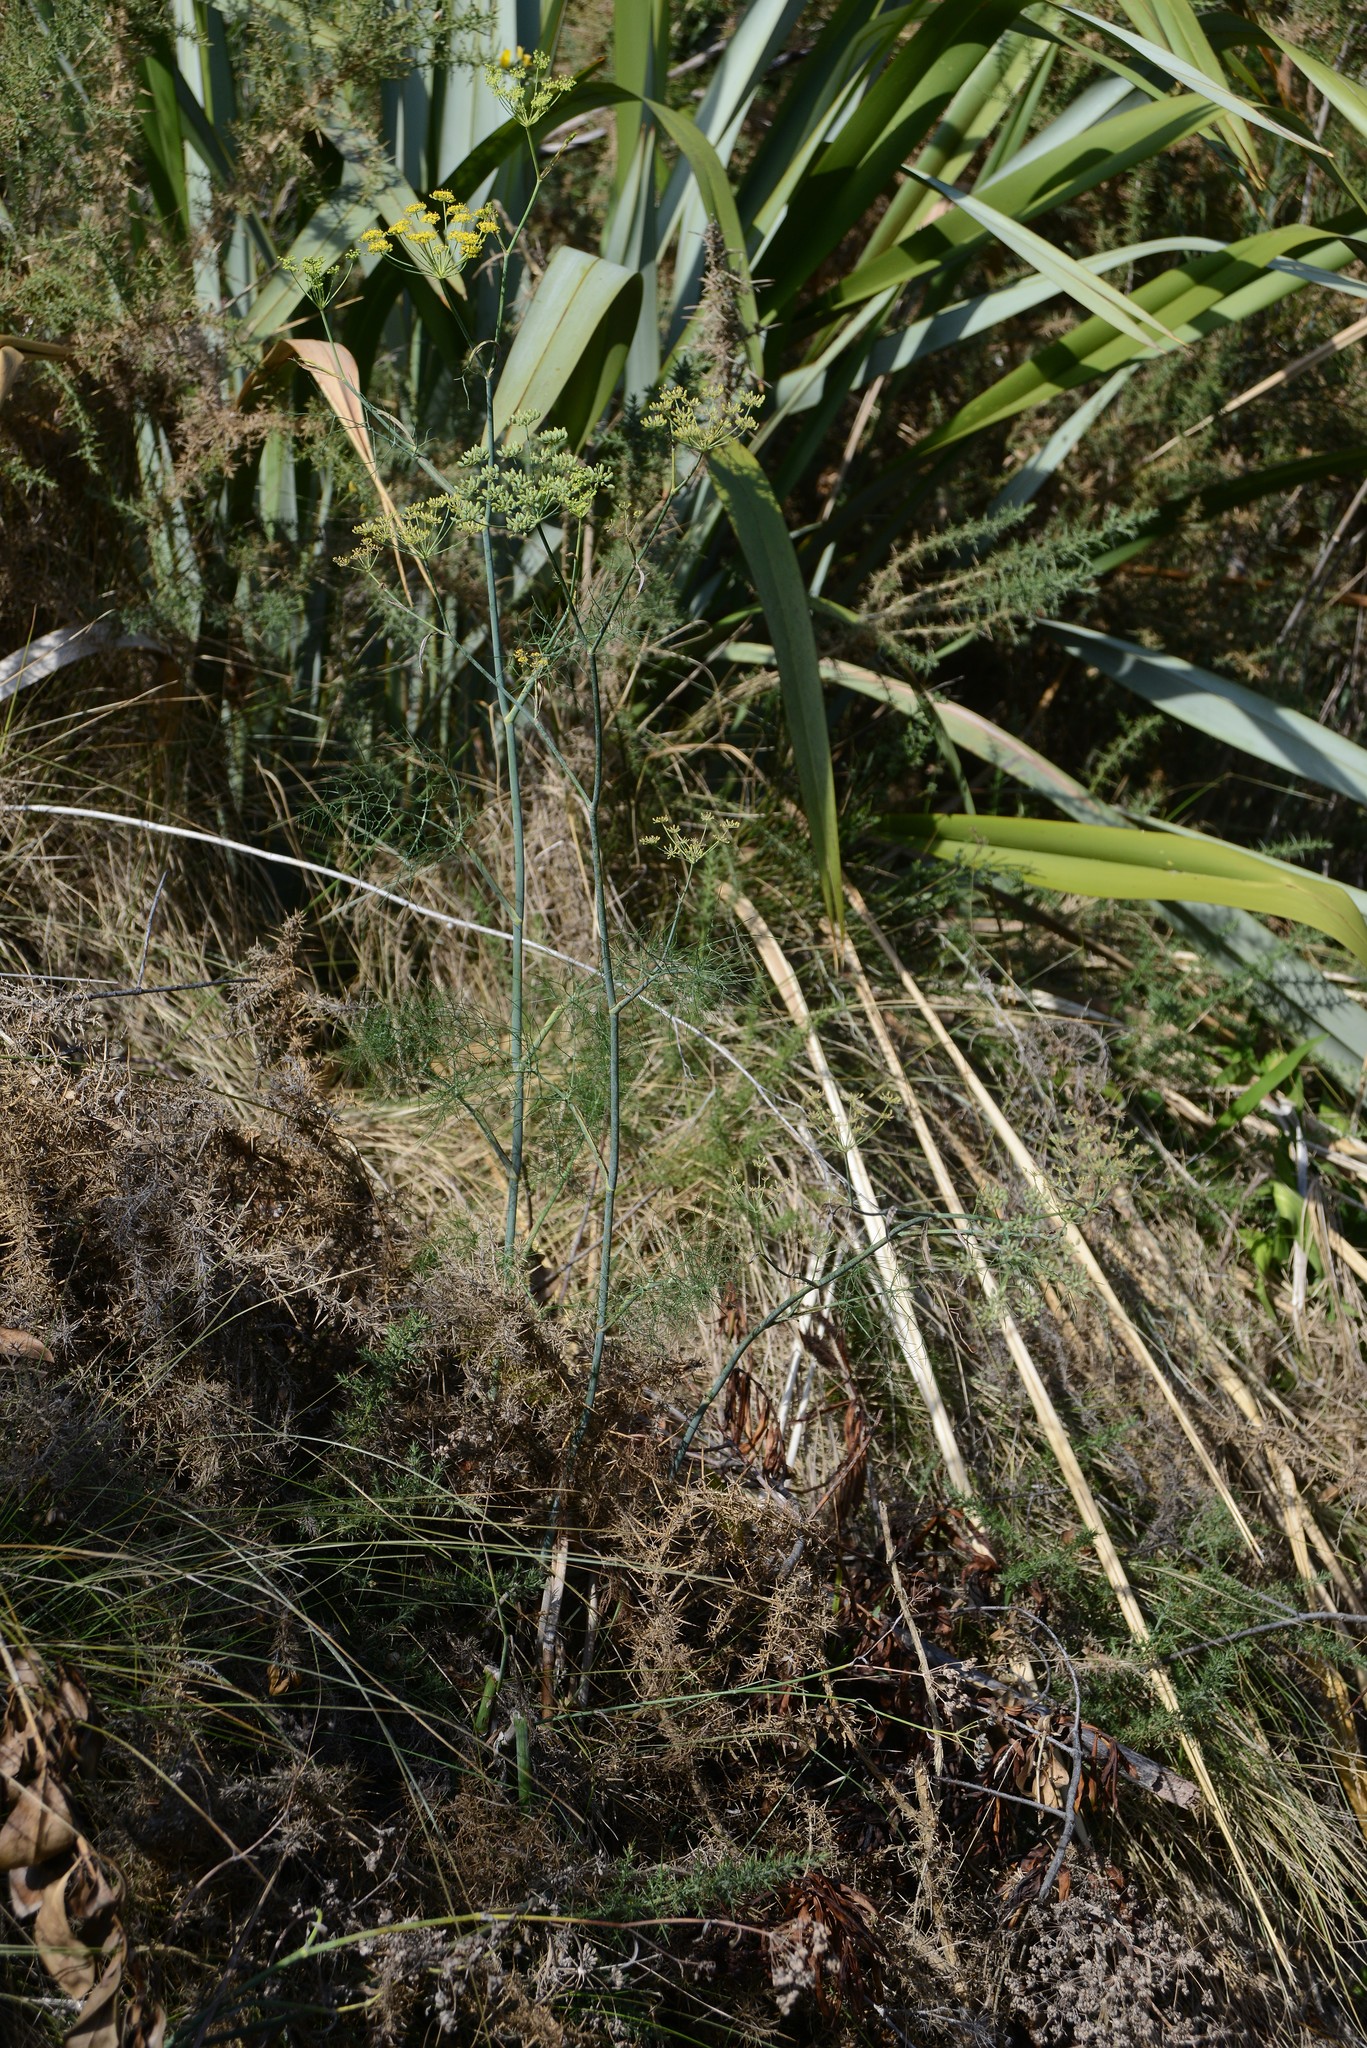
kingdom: Plantae
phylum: Tracheophyta
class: Magnoliopsida
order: Apiales
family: Apiaceae
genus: Foeniculum
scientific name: Foeniculum vulgare
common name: Fennel
